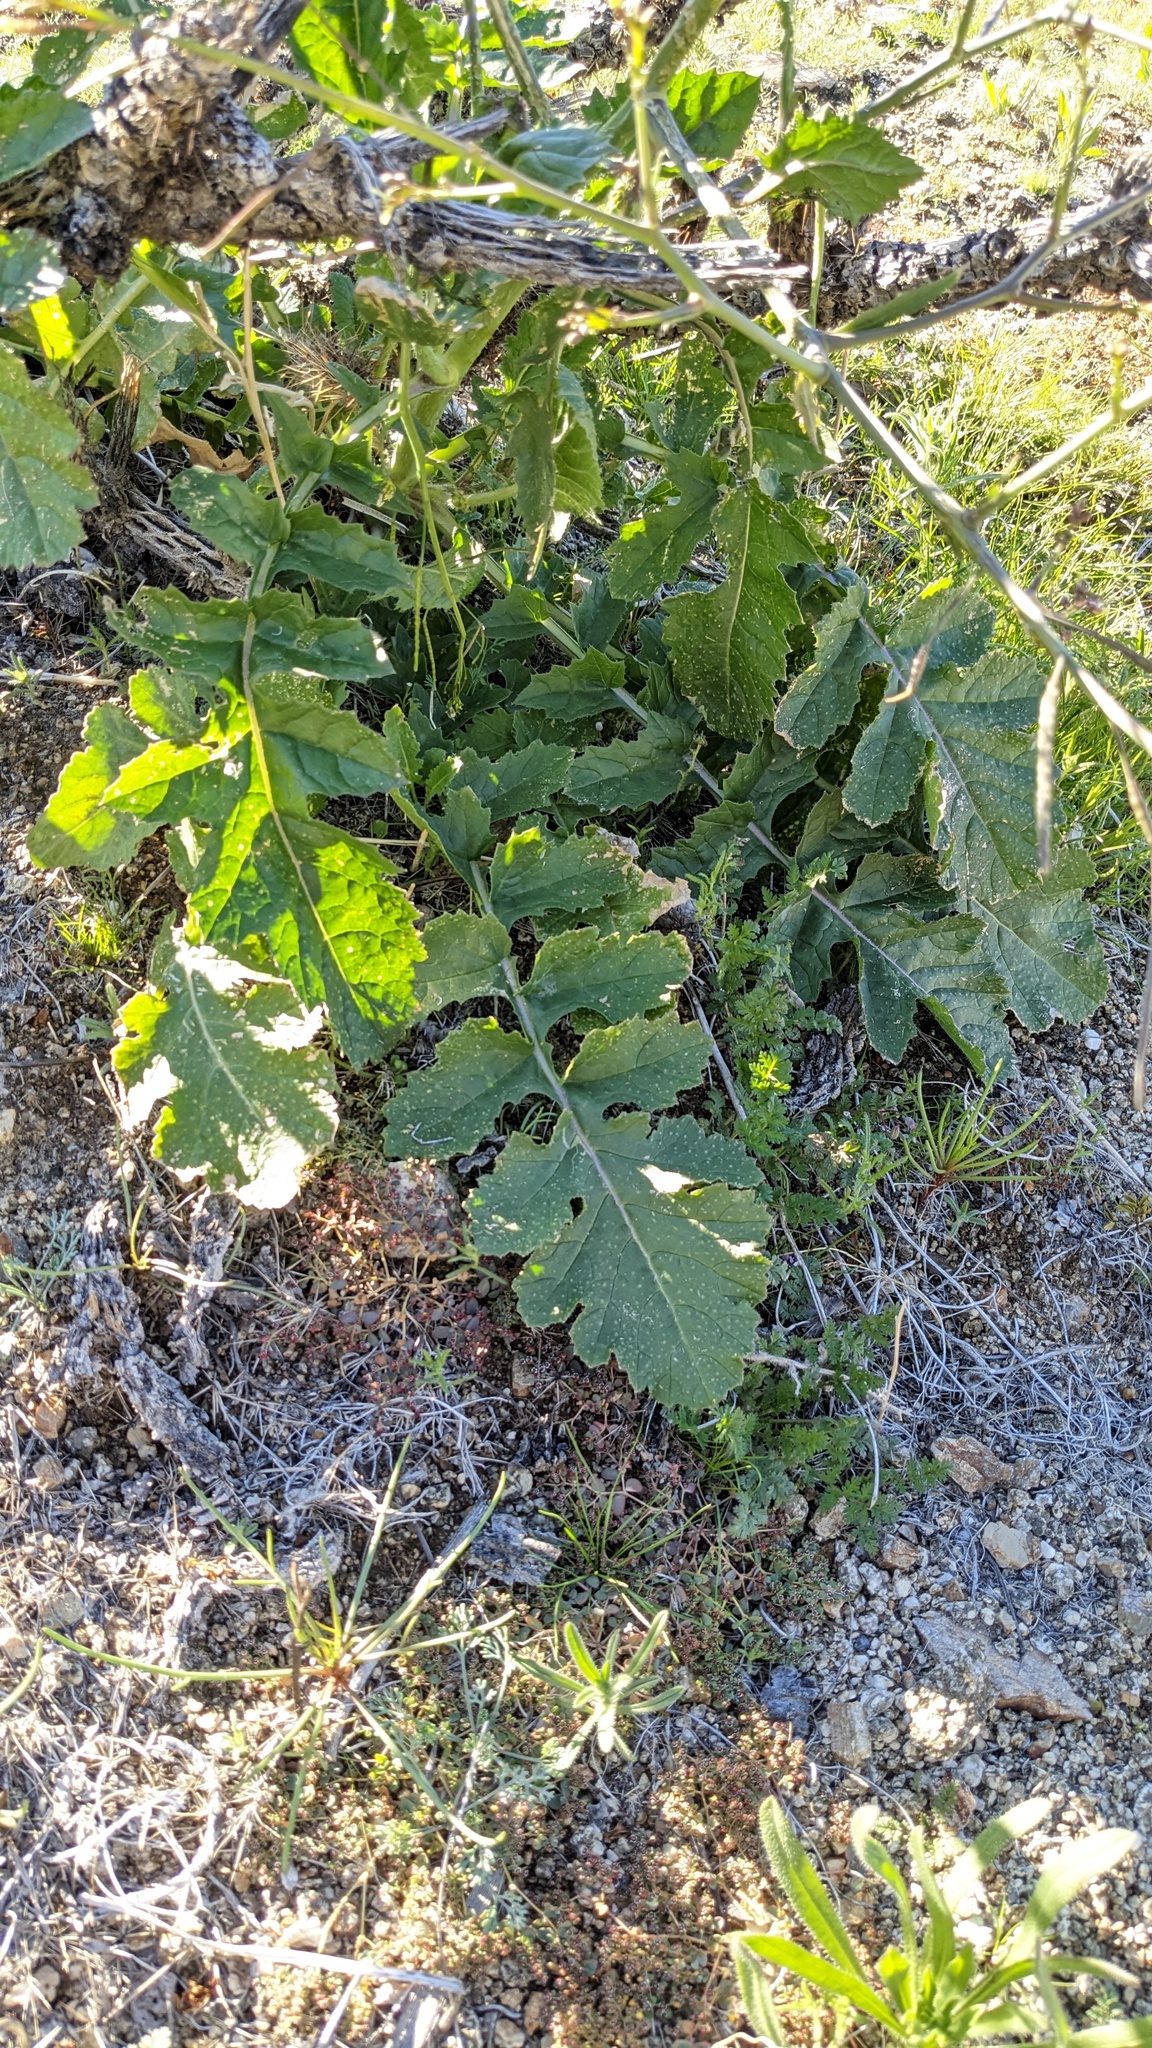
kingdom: Plantae
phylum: Tracheophyta
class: Magnoliopsida
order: Brassicales
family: Brassicaceae
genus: Brassica
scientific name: Brassica tournefortii
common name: Pale cabbage
